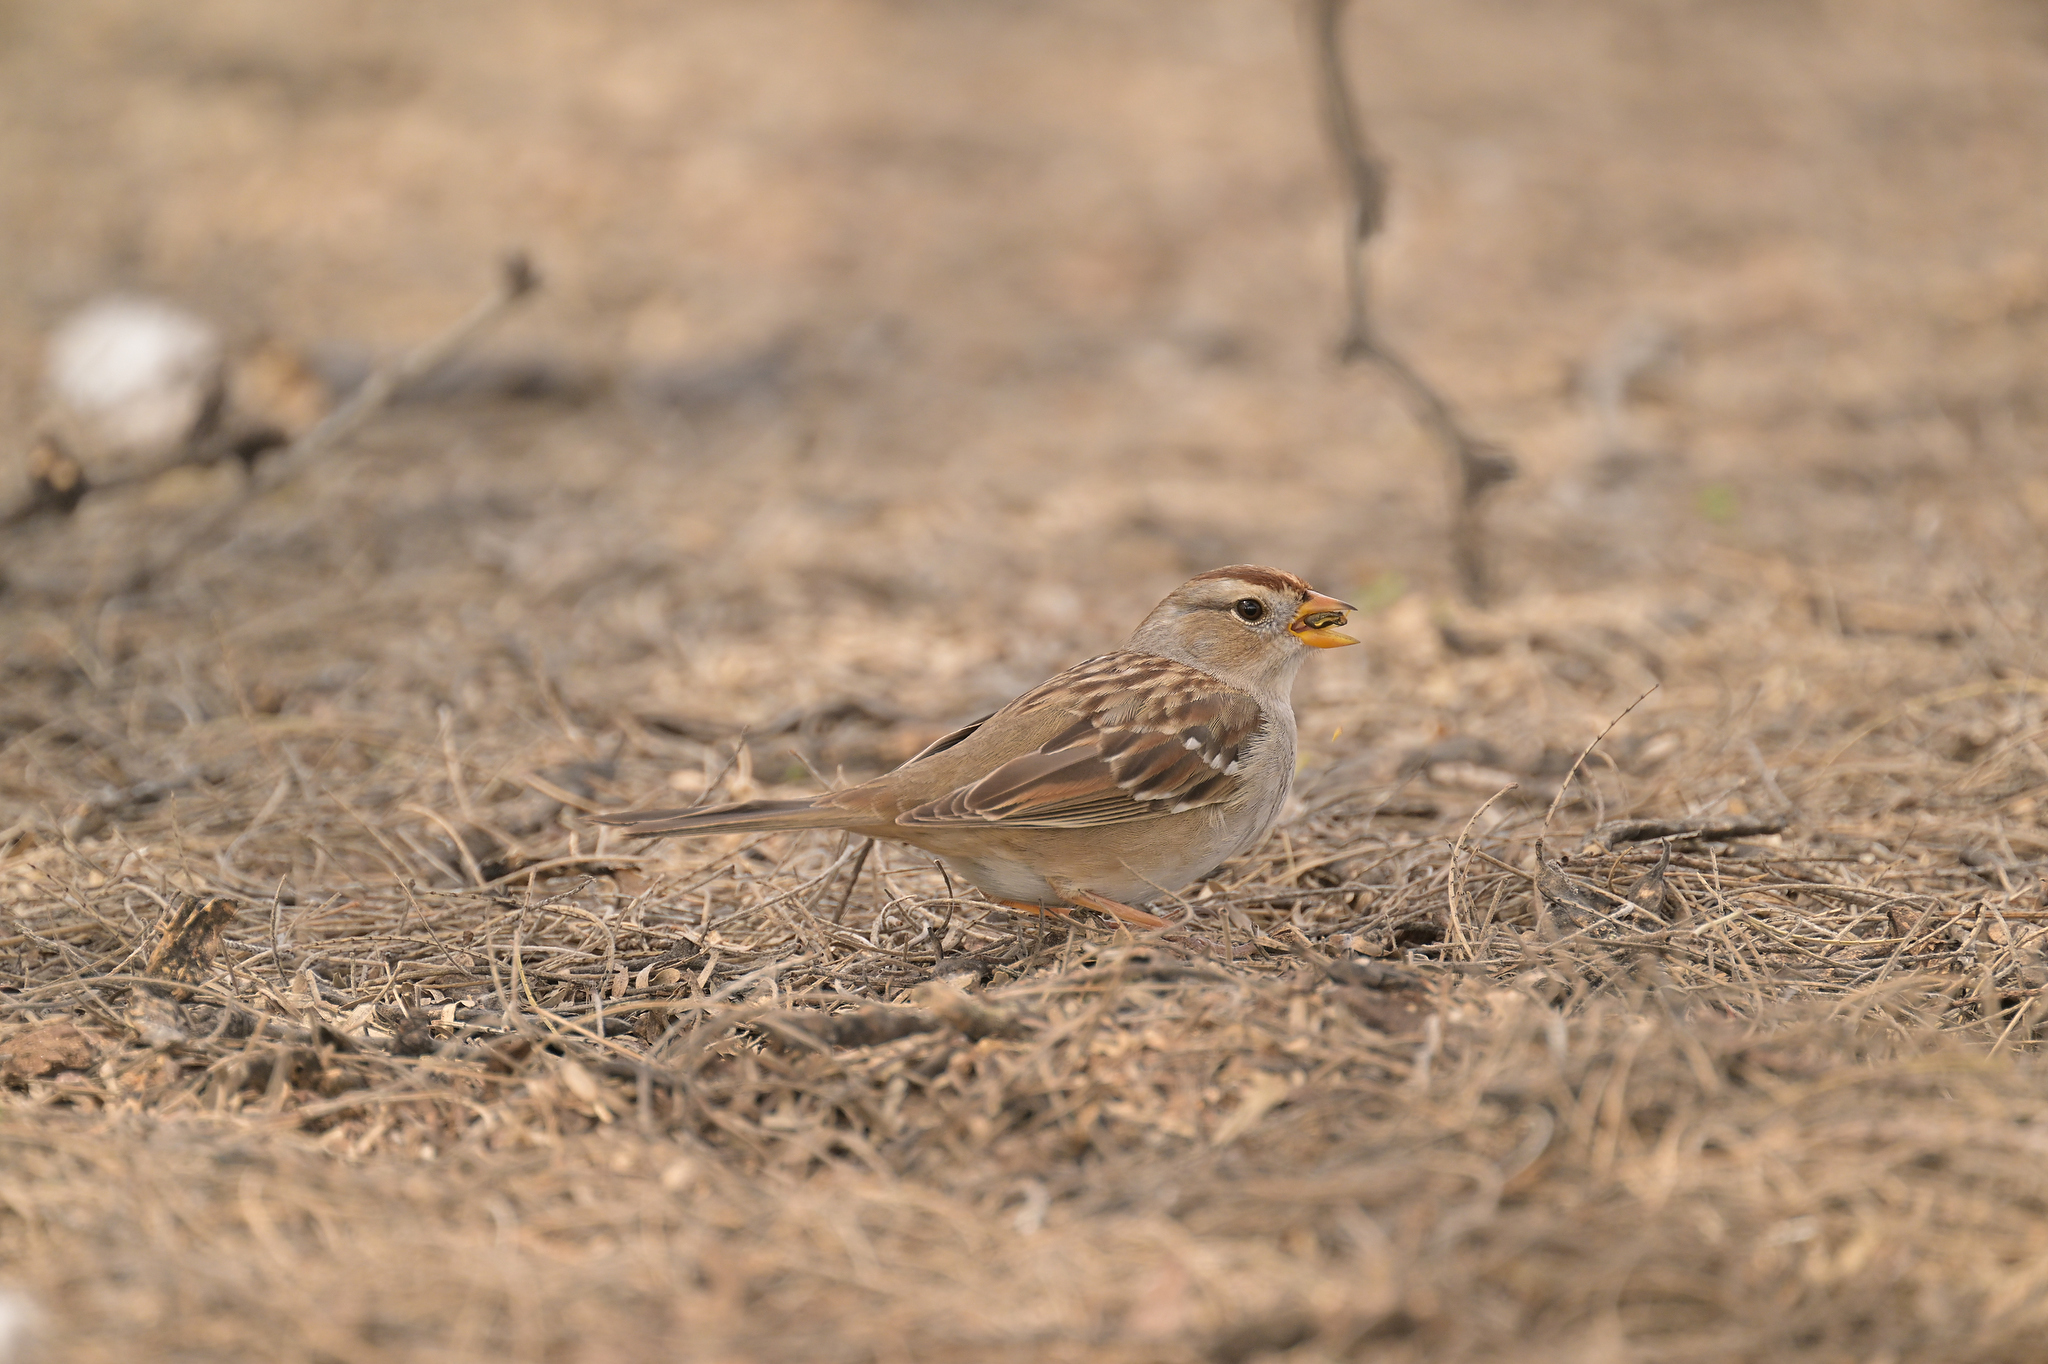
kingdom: Animalia
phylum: Chordata
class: Aves
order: Passeriformes
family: Passerellidae
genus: Zonotrichia
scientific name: Zonotrichia leucophrys
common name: White-crowned sparrow
